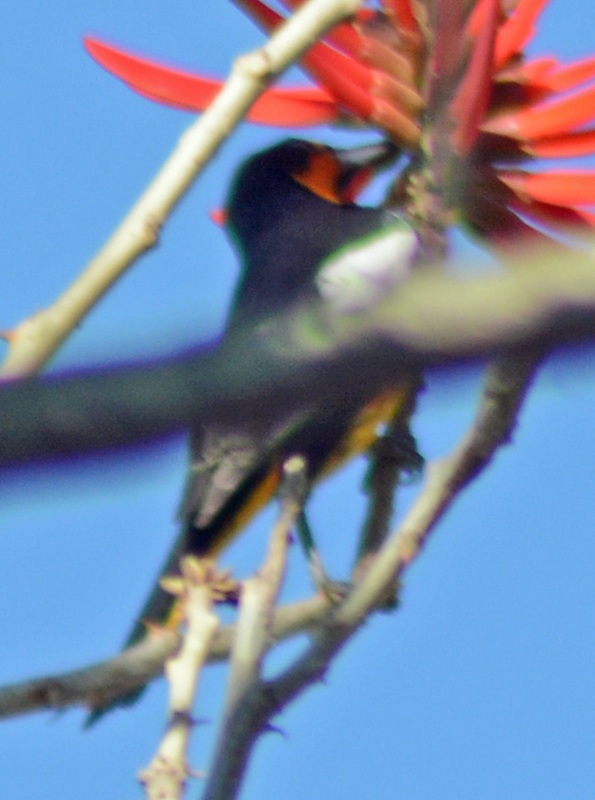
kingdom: Animalia
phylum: Chordata
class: Aves
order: Passeriformes
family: Icteridae
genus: Icterus
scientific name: Icterus abeillei
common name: Black-backed oriole
